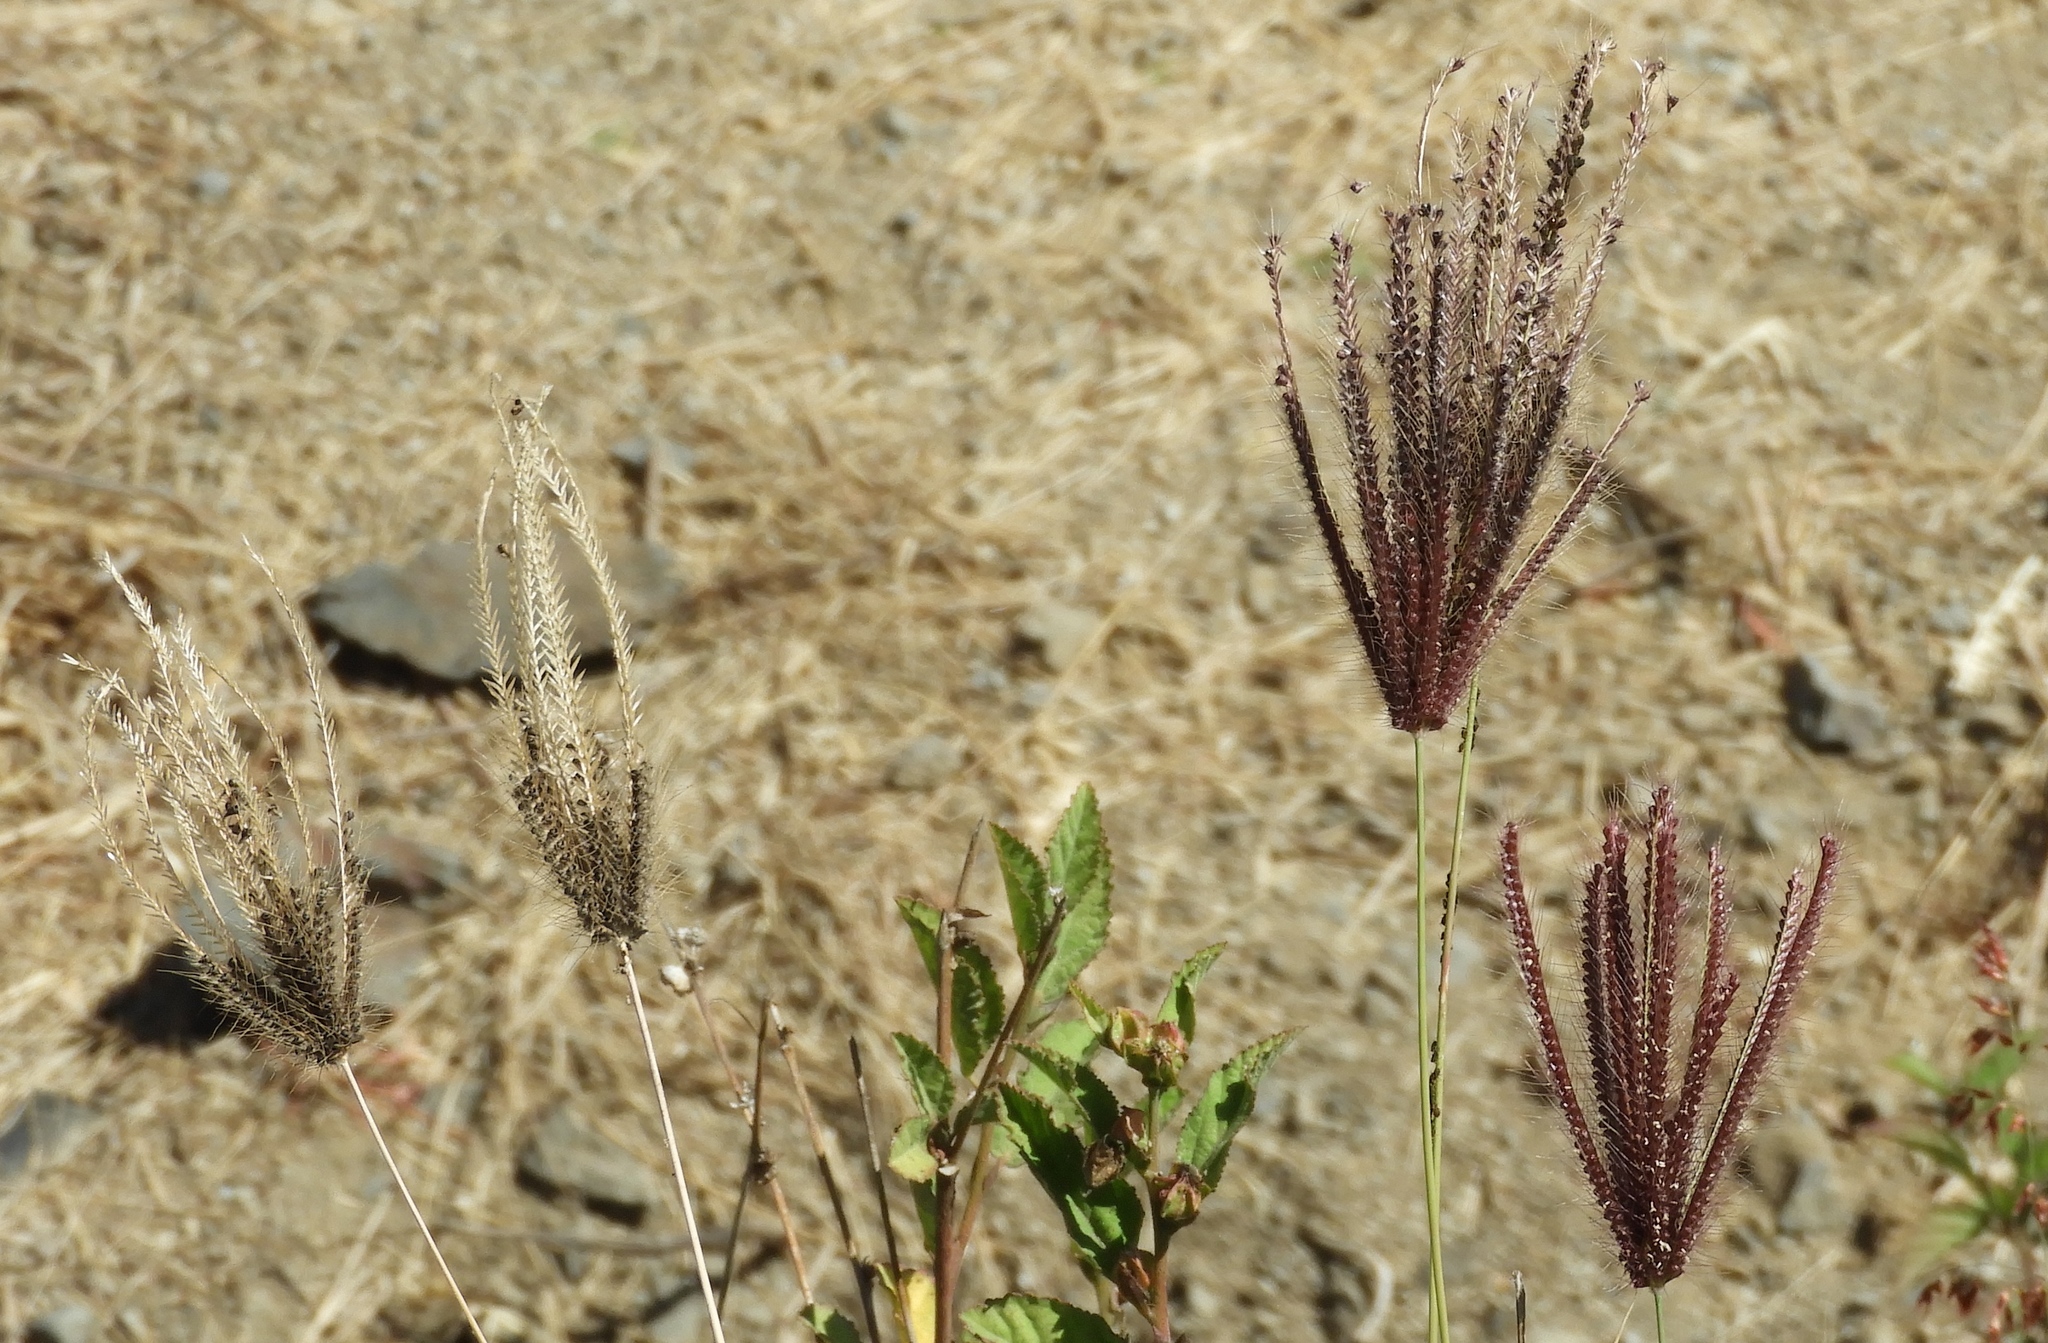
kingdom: Plantae
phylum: Tracheophyta
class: Liliopsida
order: Poales
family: Poaceae
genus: Chloris
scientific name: Chloris barbata
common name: Swollen fingergrass
